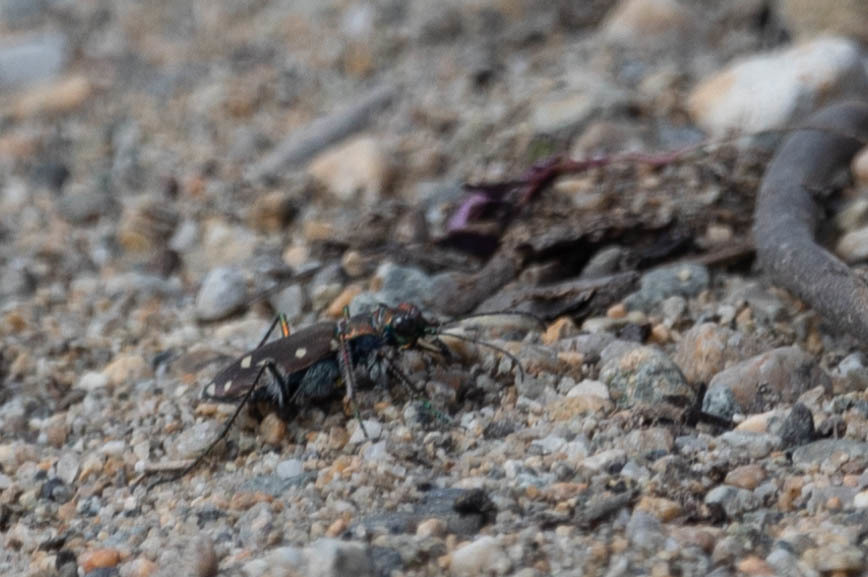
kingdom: Animalia
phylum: Arthropoda
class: Insecta
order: Coleoptera
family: Carabidae
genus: Cicindela
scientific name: Cicindela oregona
